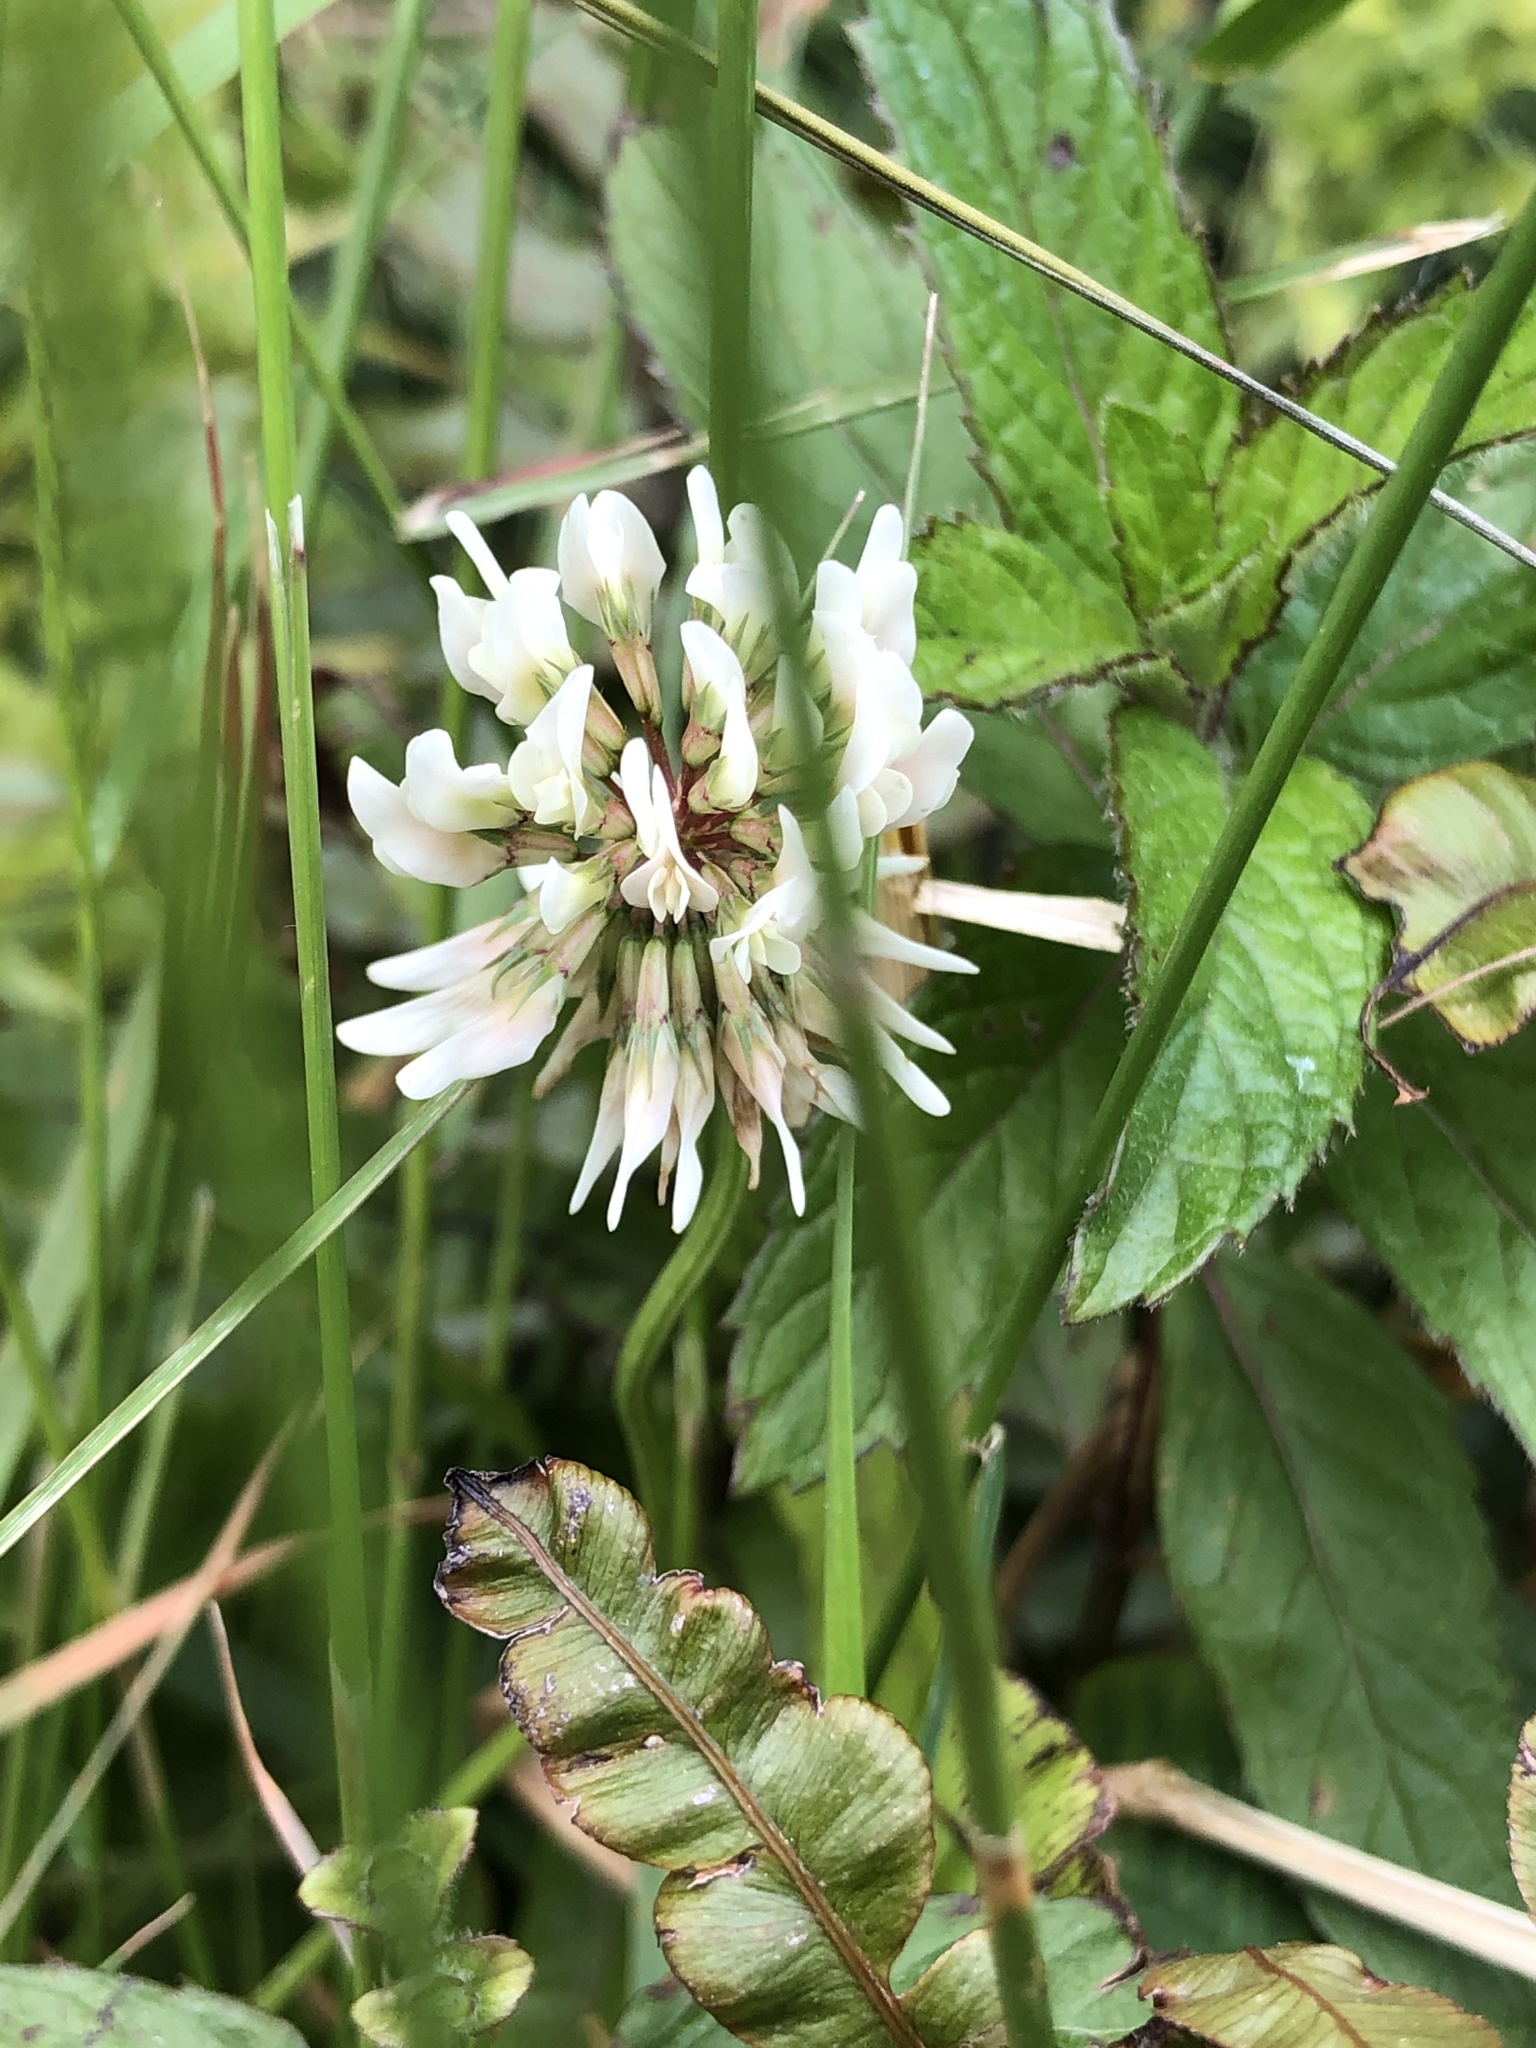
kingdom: Plantae
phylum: Tracheophyta
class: Magnoliopsida
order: Fabales
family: Fabaceae
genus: Trifolium
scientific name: Trifolium repens
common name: White clover
